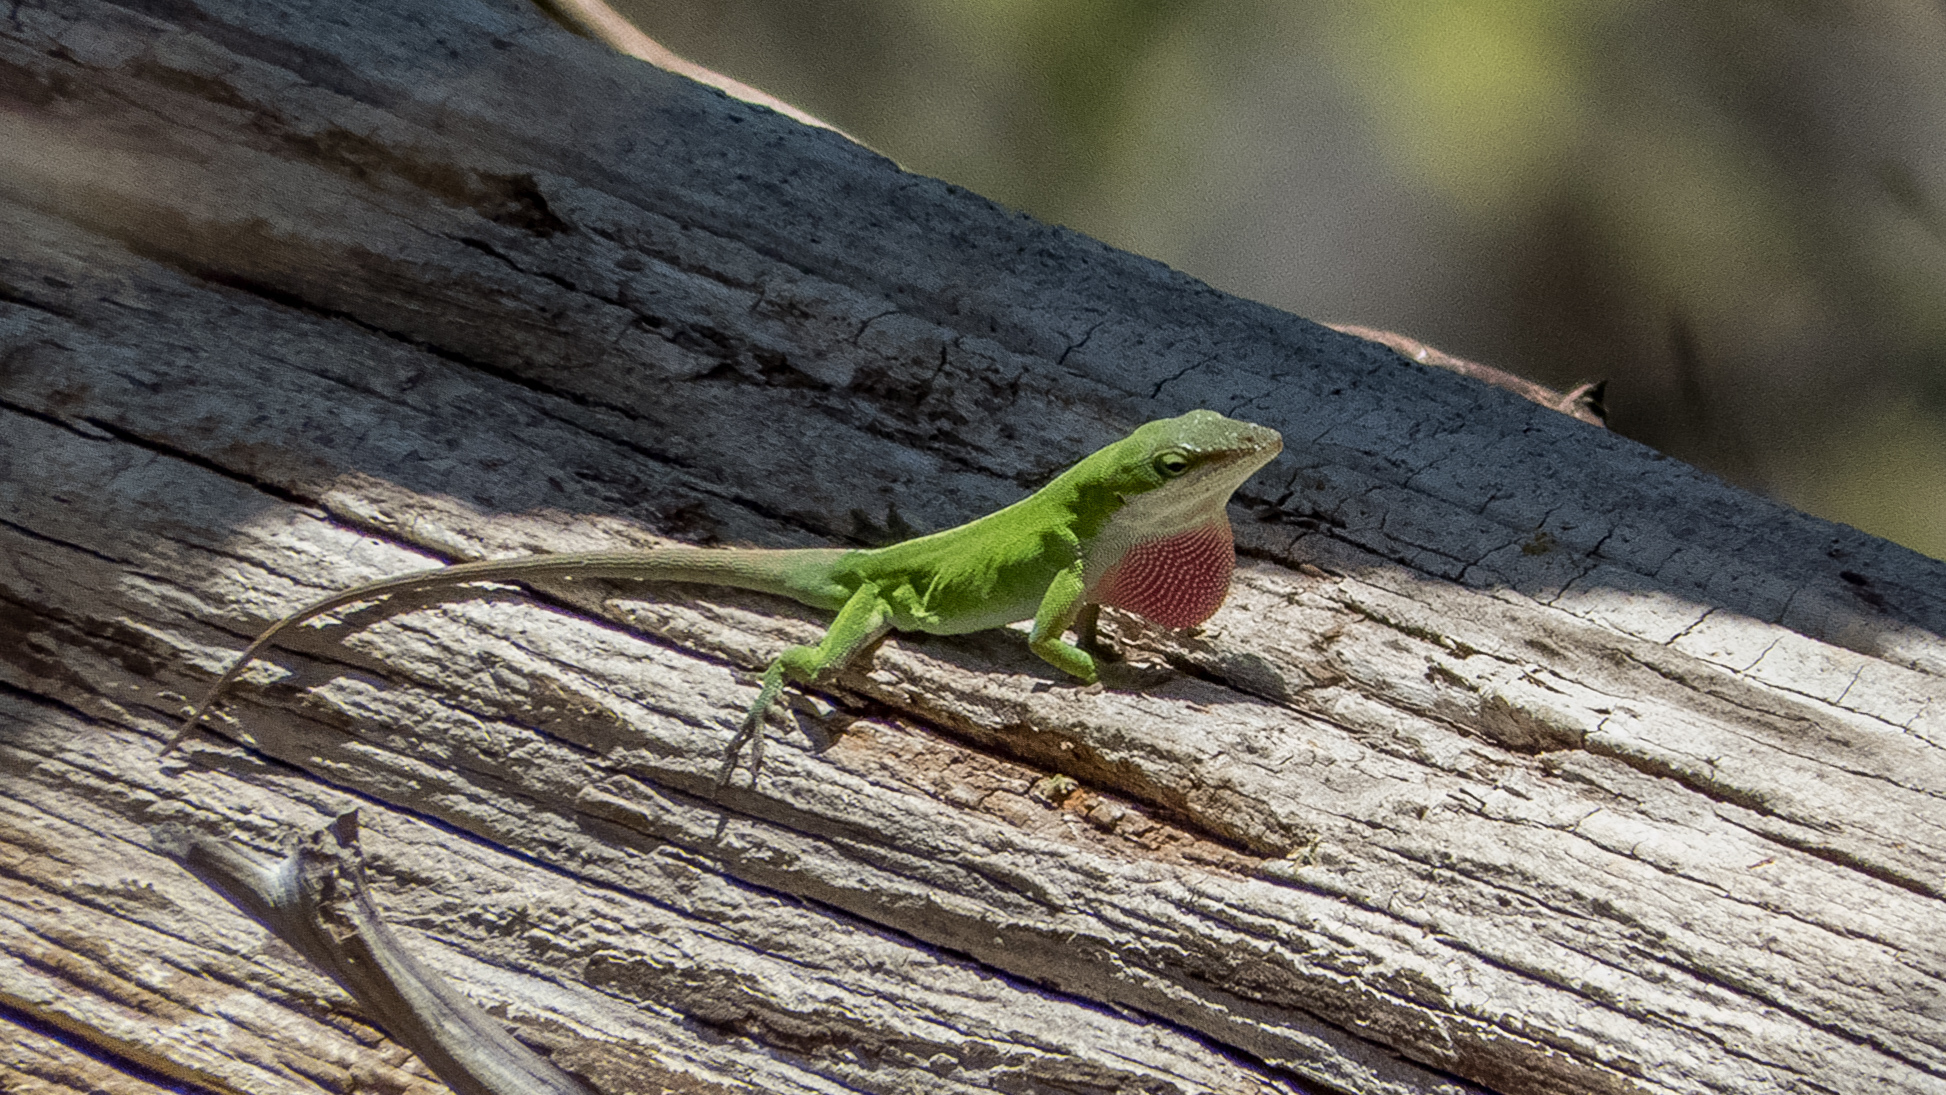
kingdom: Animalia
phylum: Chordata
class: Squamata
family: Dactyloidae
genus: Anolis
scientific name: Anolis carolinensis
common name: Green anole
